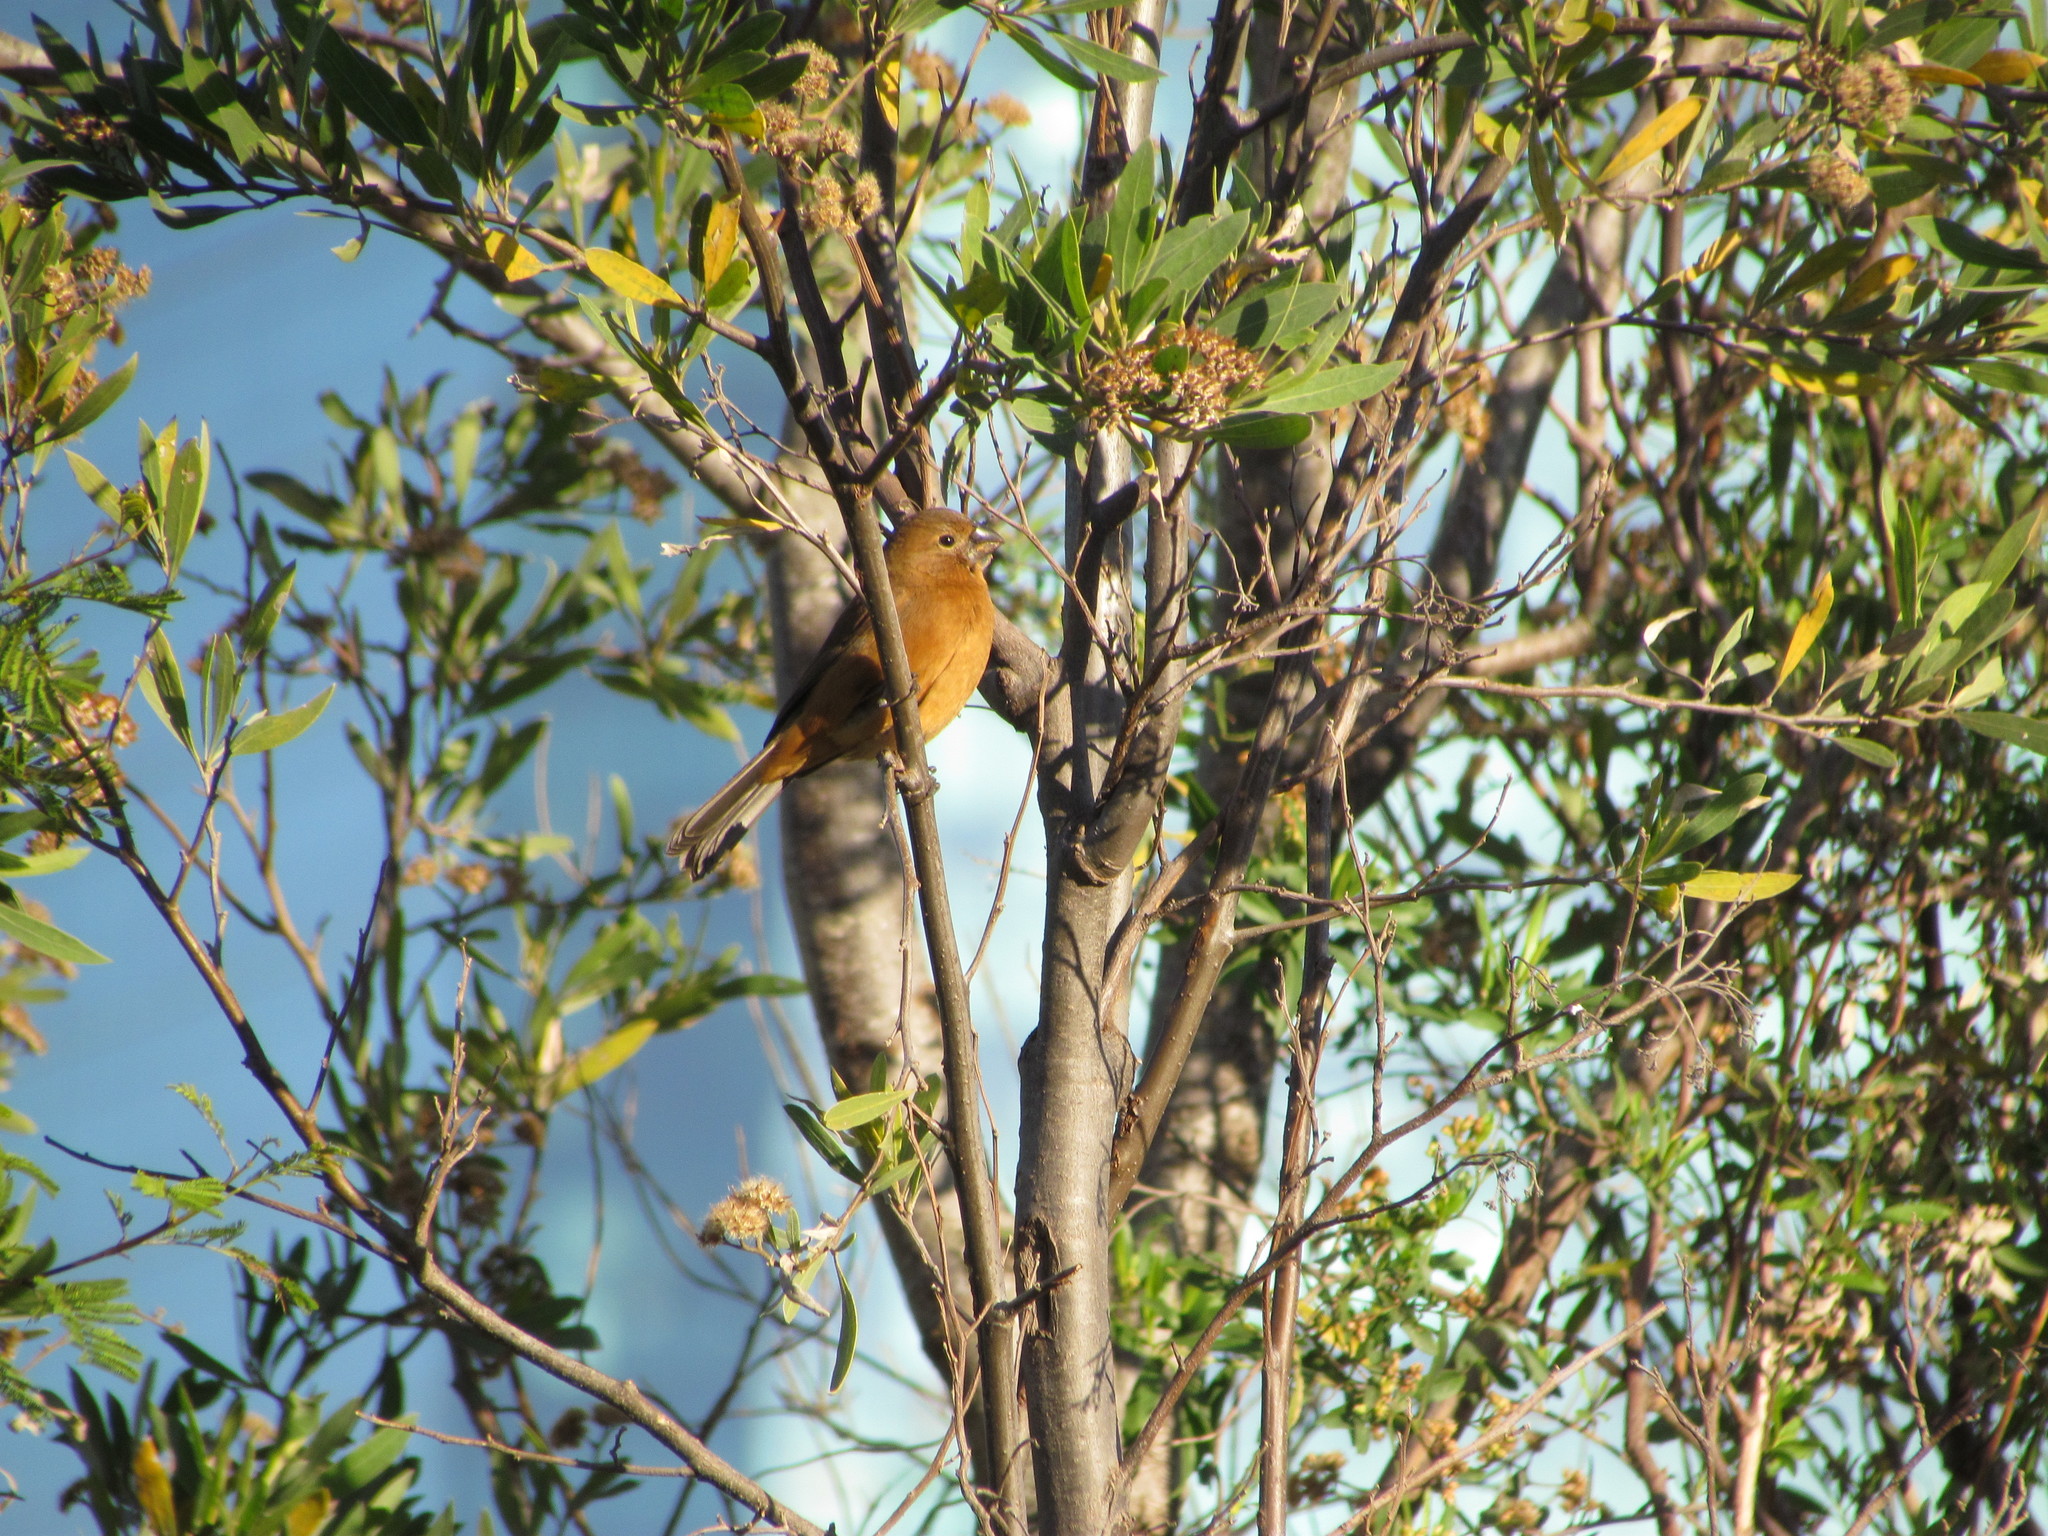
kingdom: Animalia
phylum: Chordata
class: Aves
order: Passeriformes
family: Cardinalidae
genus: Cyanoloxia
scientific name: Cyanoloxia glaucocaerulea
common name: Glaucous-blue grosbeak
